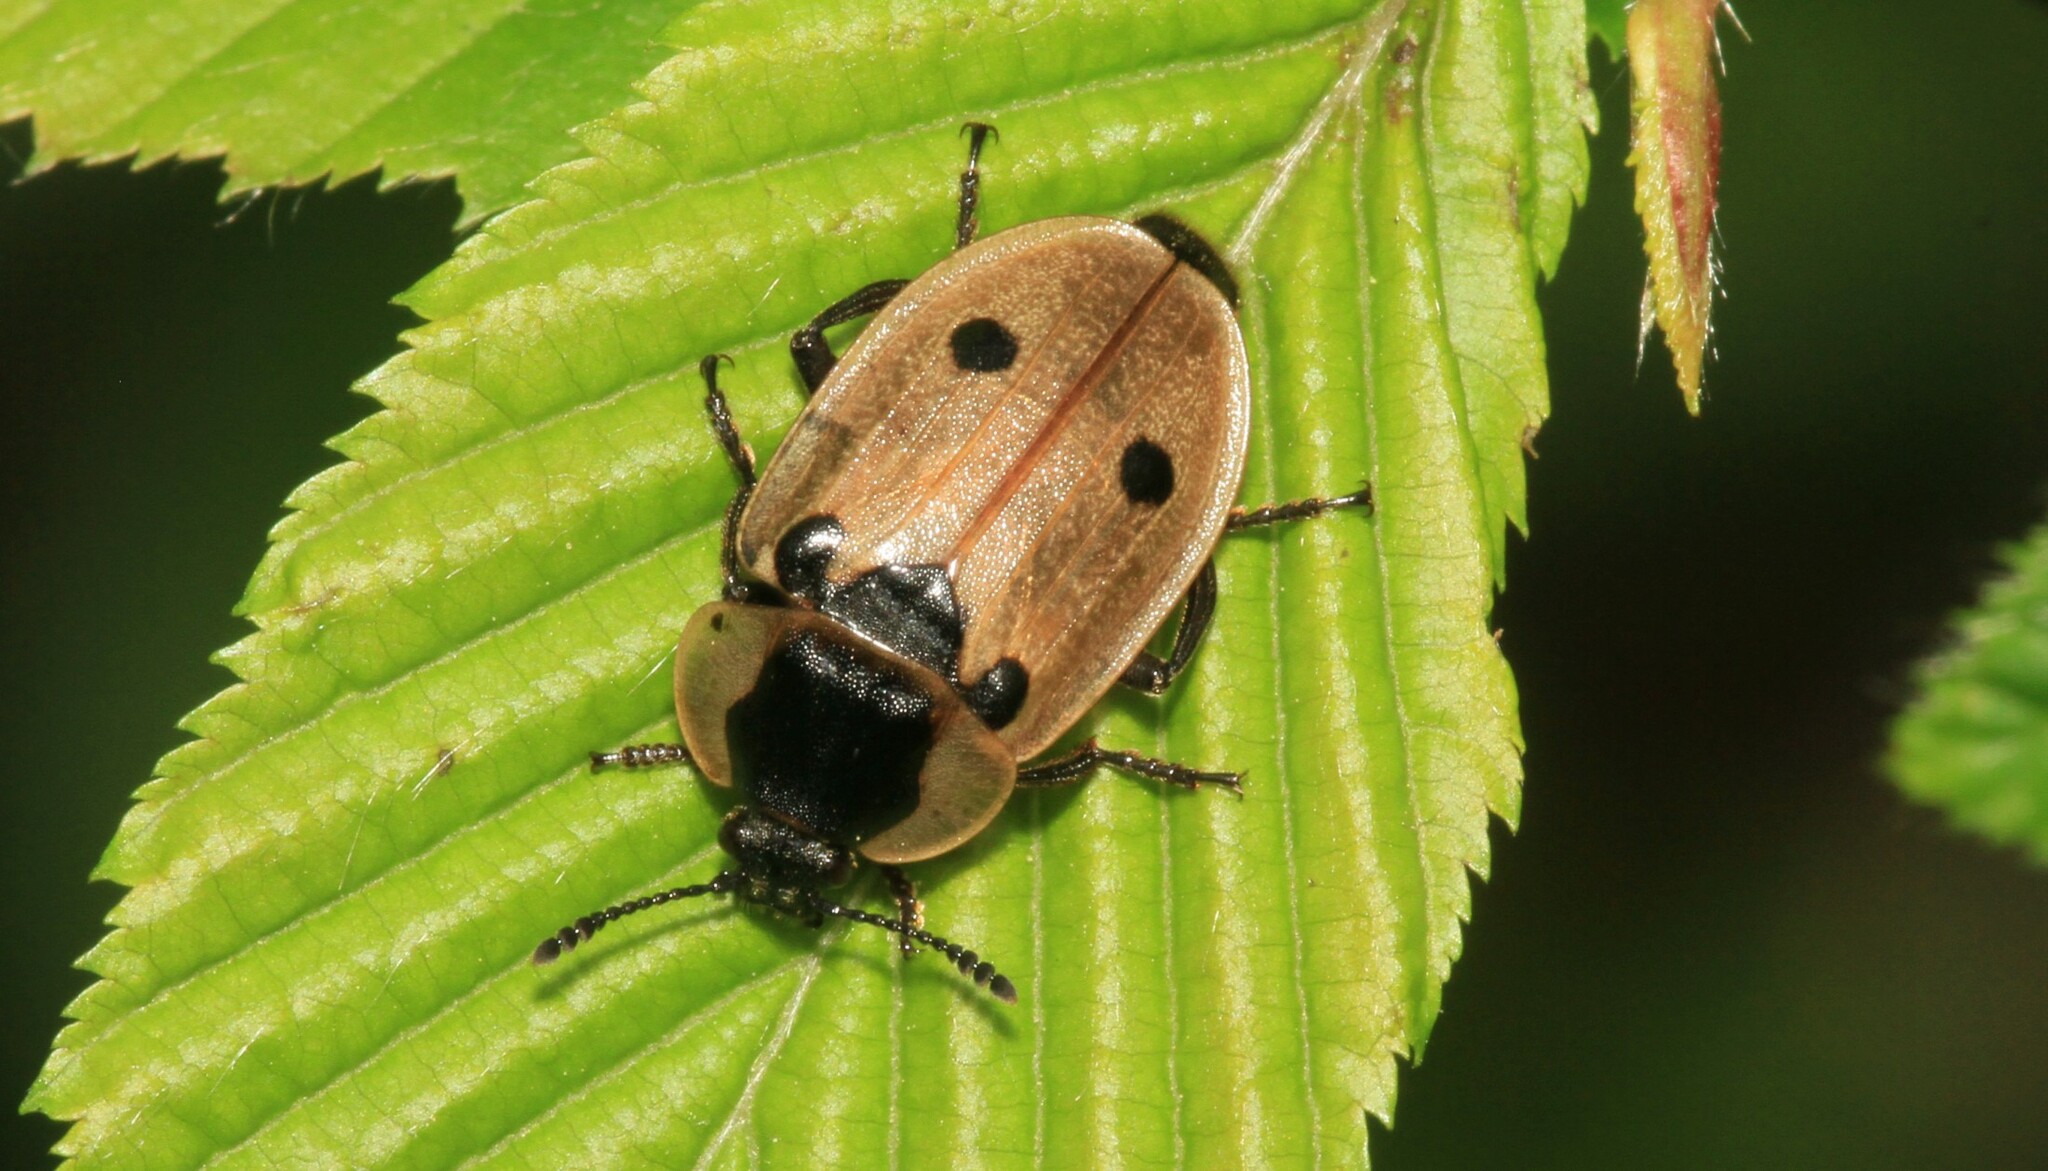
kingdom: Animalia
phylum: Arthropoda
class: Insecta
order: Coleoptera
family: Staphylinidae
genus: Dendroxena
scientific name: Dendroxena quadrimaculata
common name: Carrion beetle
